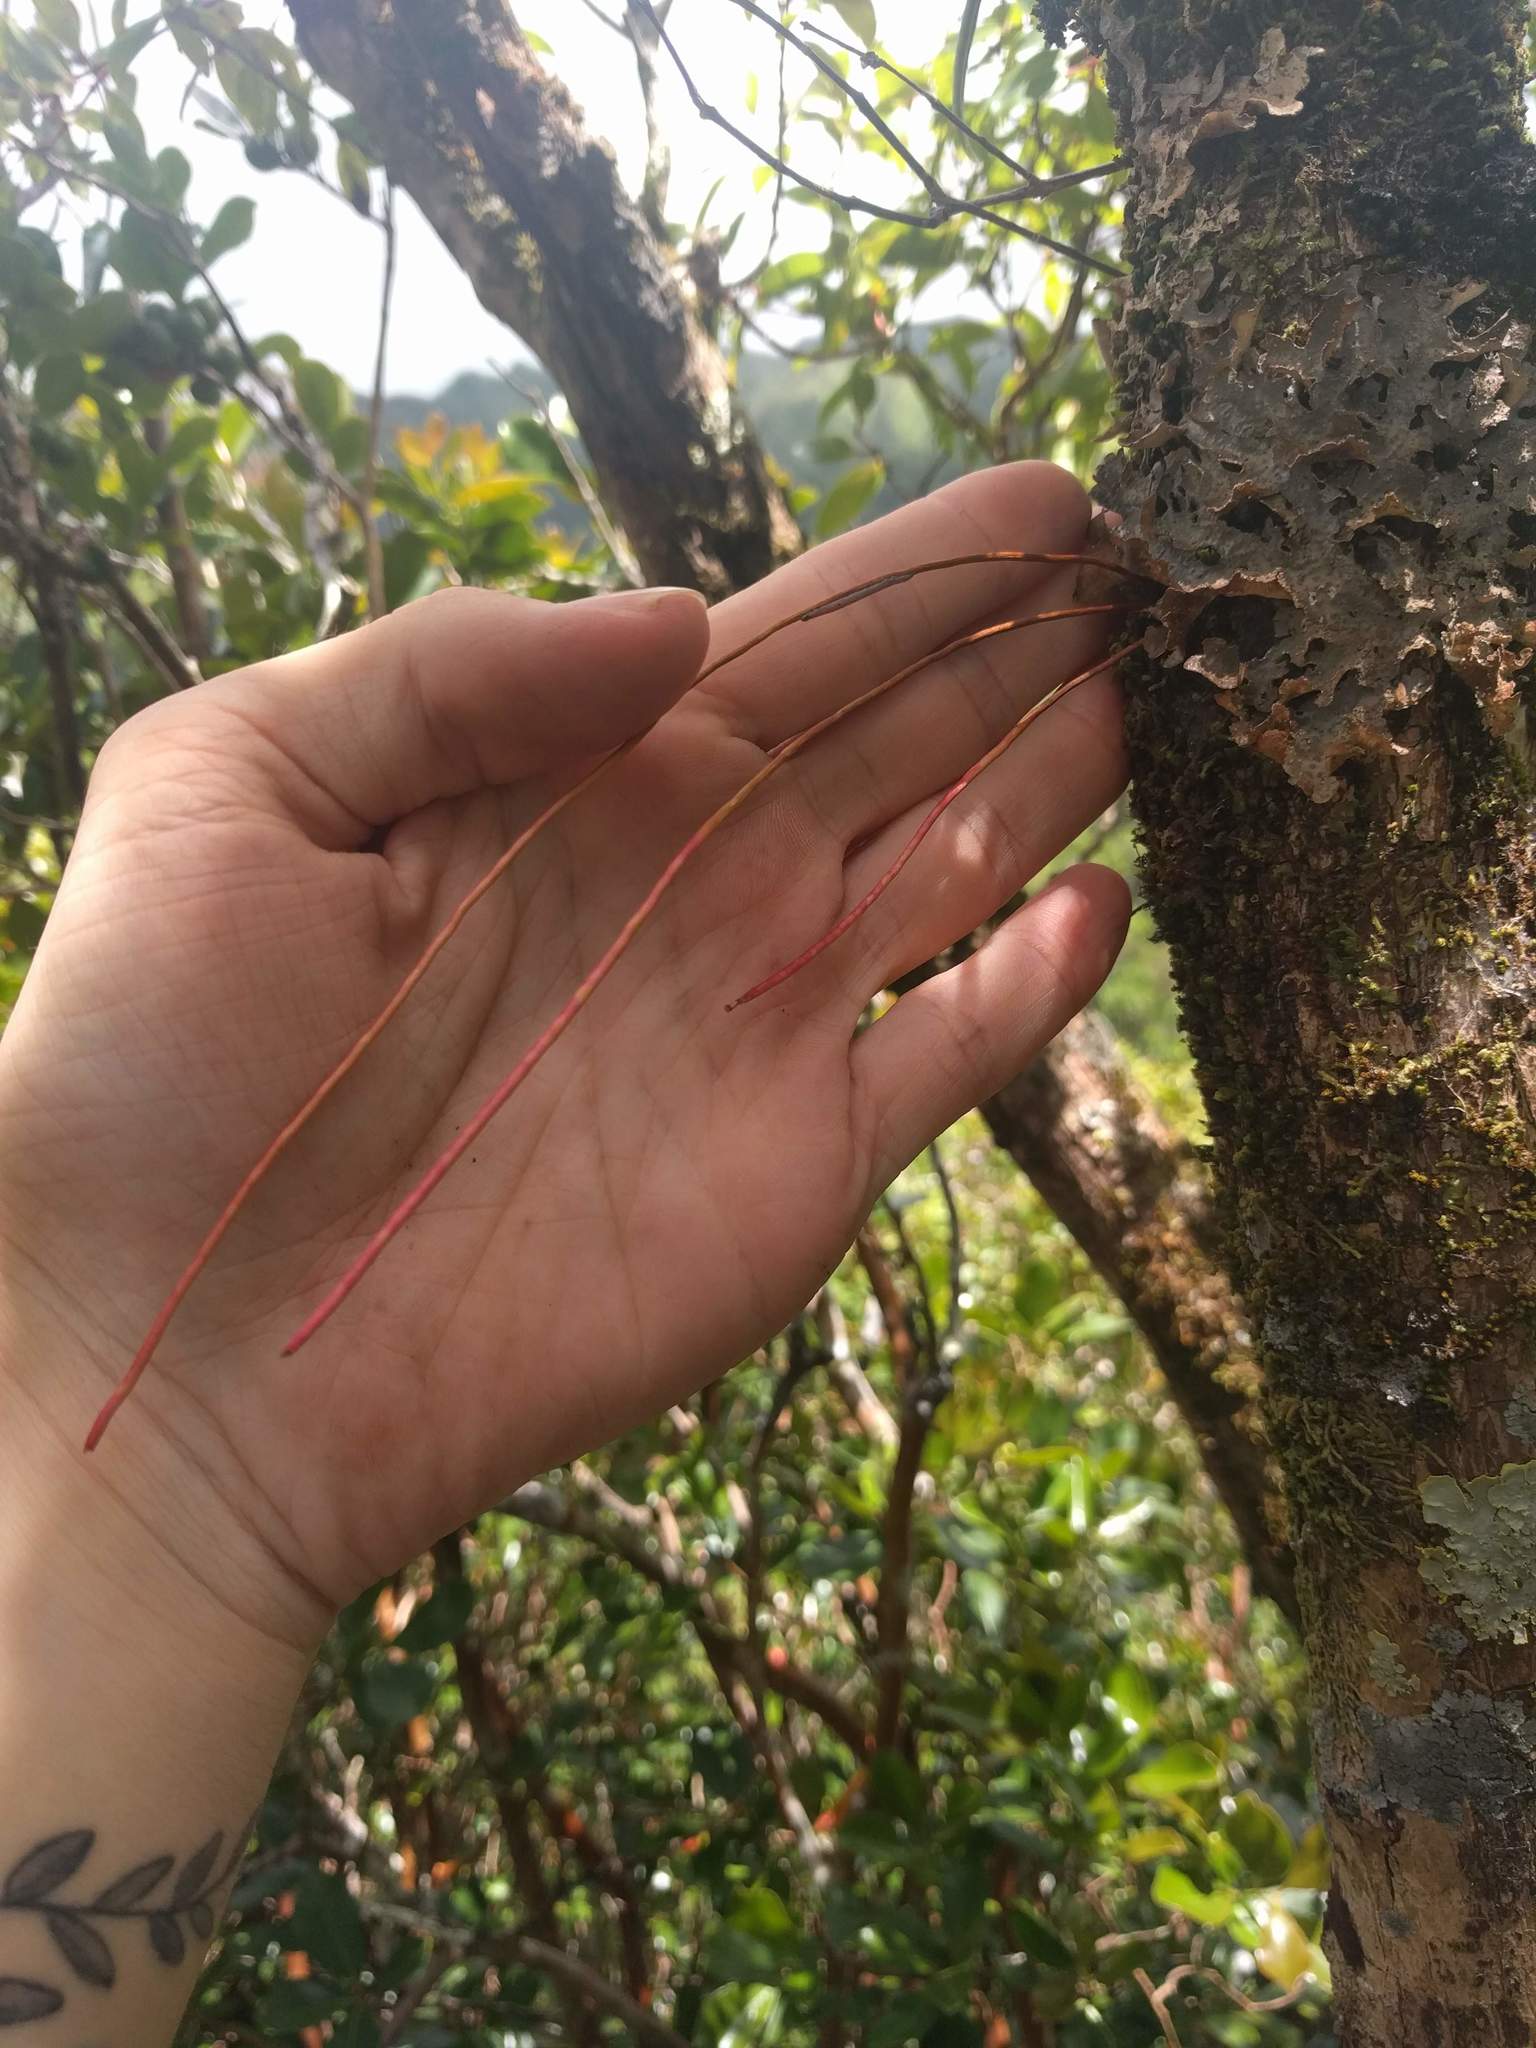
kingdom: Plantae
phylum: Tracheophyta
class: Magnoliopsida
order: Myrtales
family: Myrtaceae
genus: Metrosideros
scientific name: Metrosideros polymorpha
